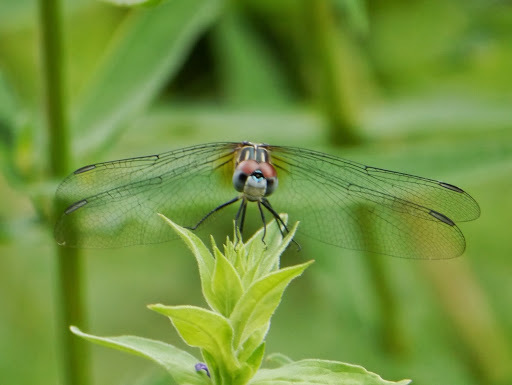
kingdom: Animalia
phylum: Arthropoda
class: Insecta
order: Odonata
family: Libellulidae
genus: Pachydiplax
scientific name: Pachydiplax longipennis
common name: Blue dasher
